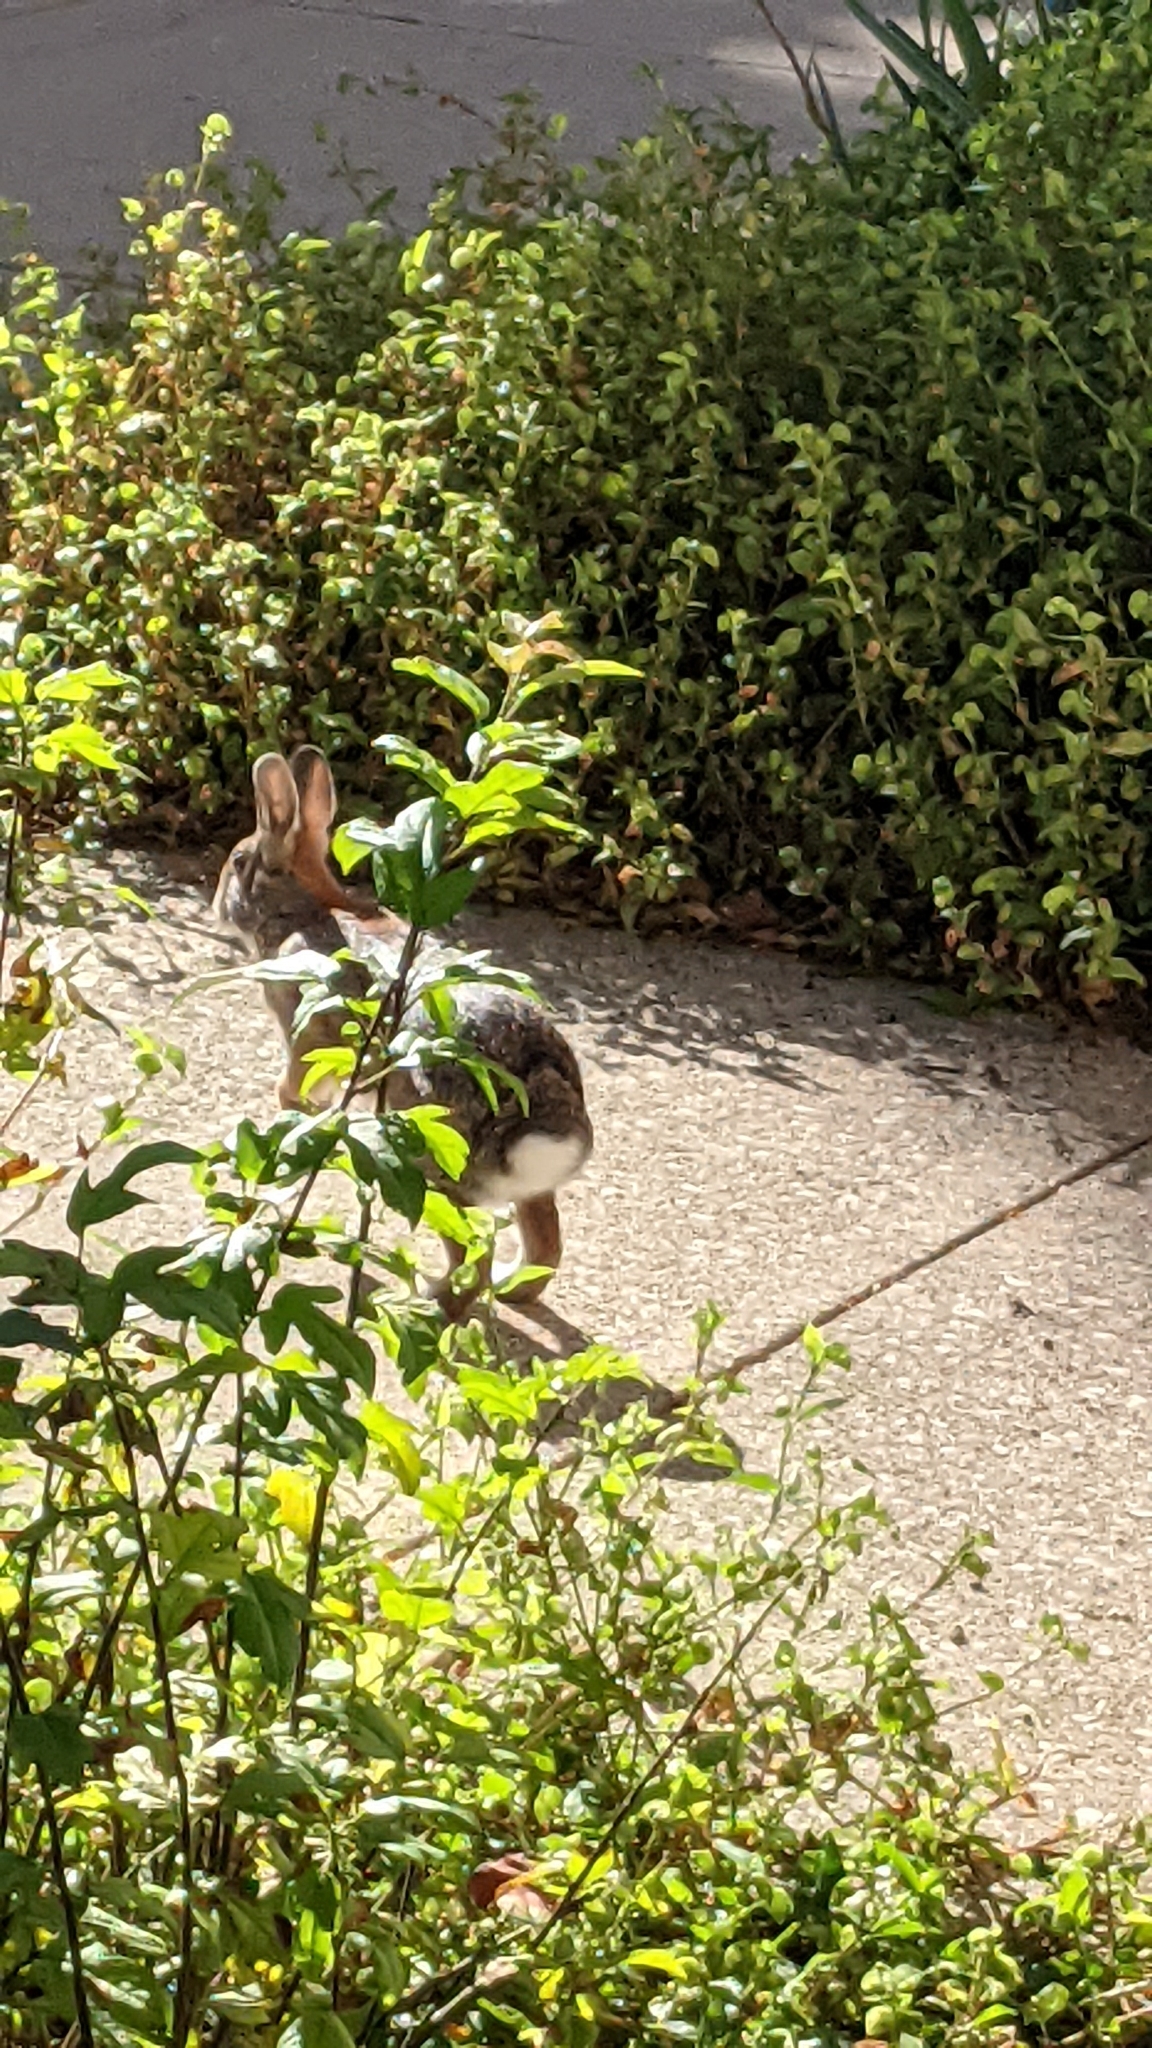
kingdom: Animalia
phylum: Chordata
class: Mammalia
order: Lagomorpha
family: Leporidae
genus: Sylvilagus
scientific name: Sylvilagus floridanus
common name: Eastern cottontail
